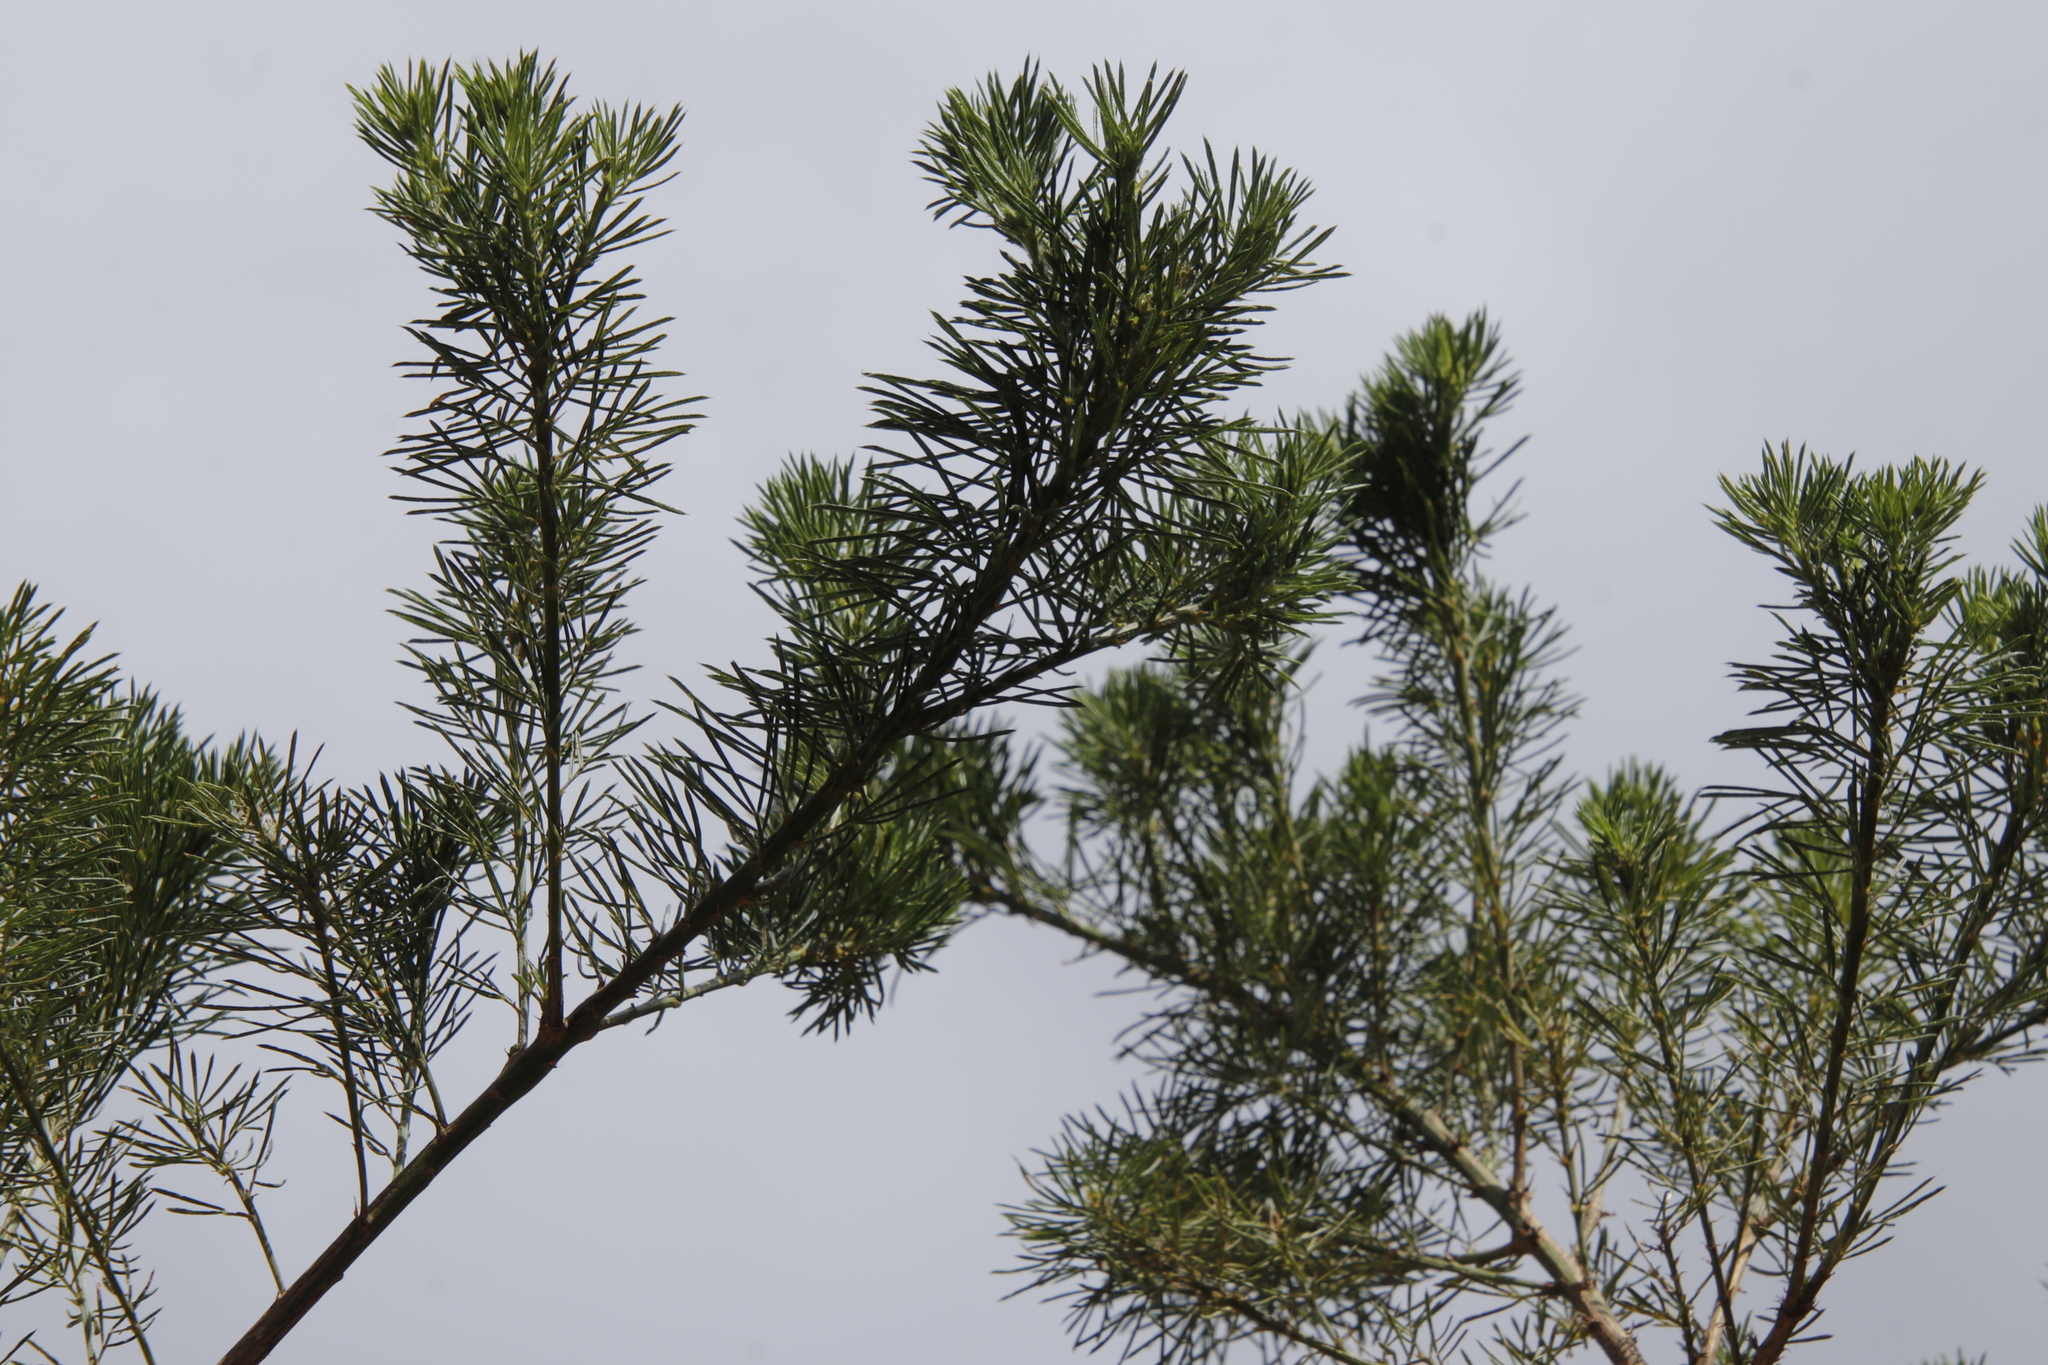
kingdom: Plantae
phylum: Tracheophyta
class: Magnoliopsida
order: Fabales
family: Fabaceae
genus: Psoralea
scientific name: Psoralea pinnata
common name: African scurfpea
